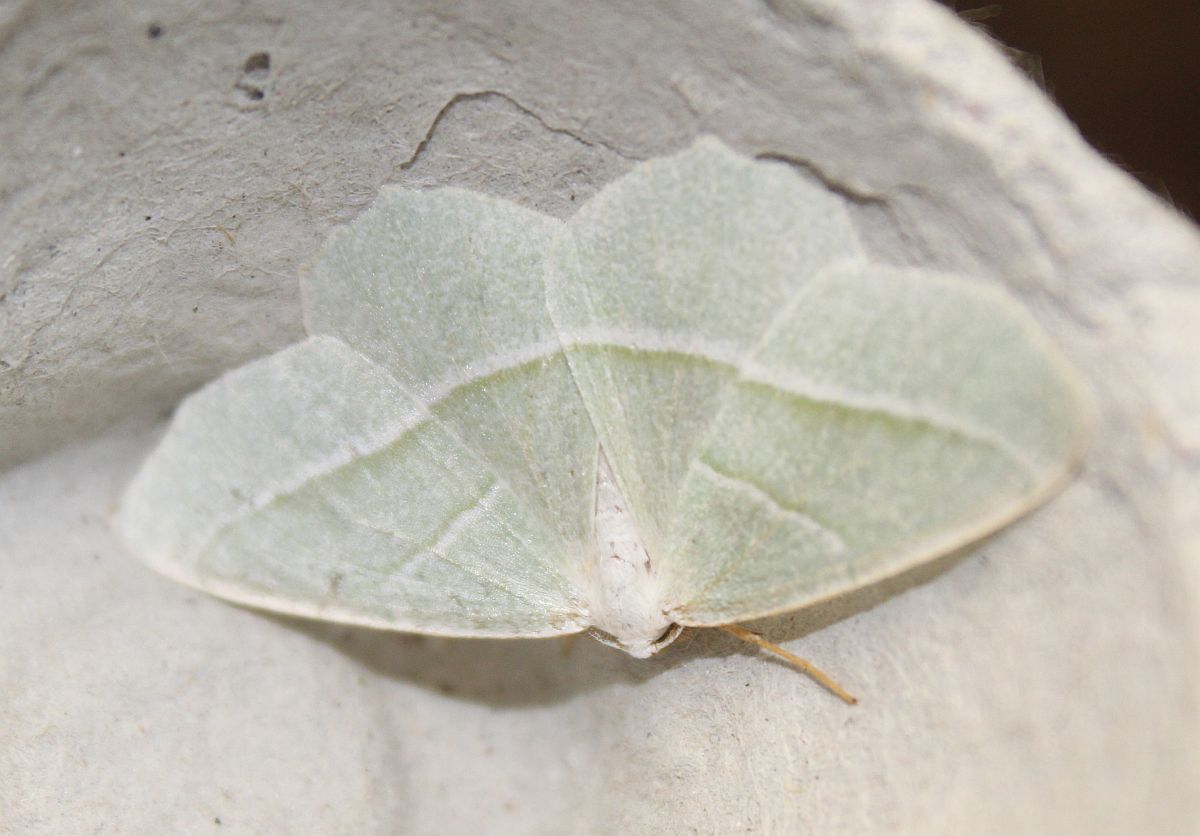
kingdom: Animalia
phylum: Arthropoda
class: Insecta
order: Lepidoptera
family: Geometridae
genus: Campaea
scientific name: Campaea margaritaria
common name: Light emerald
